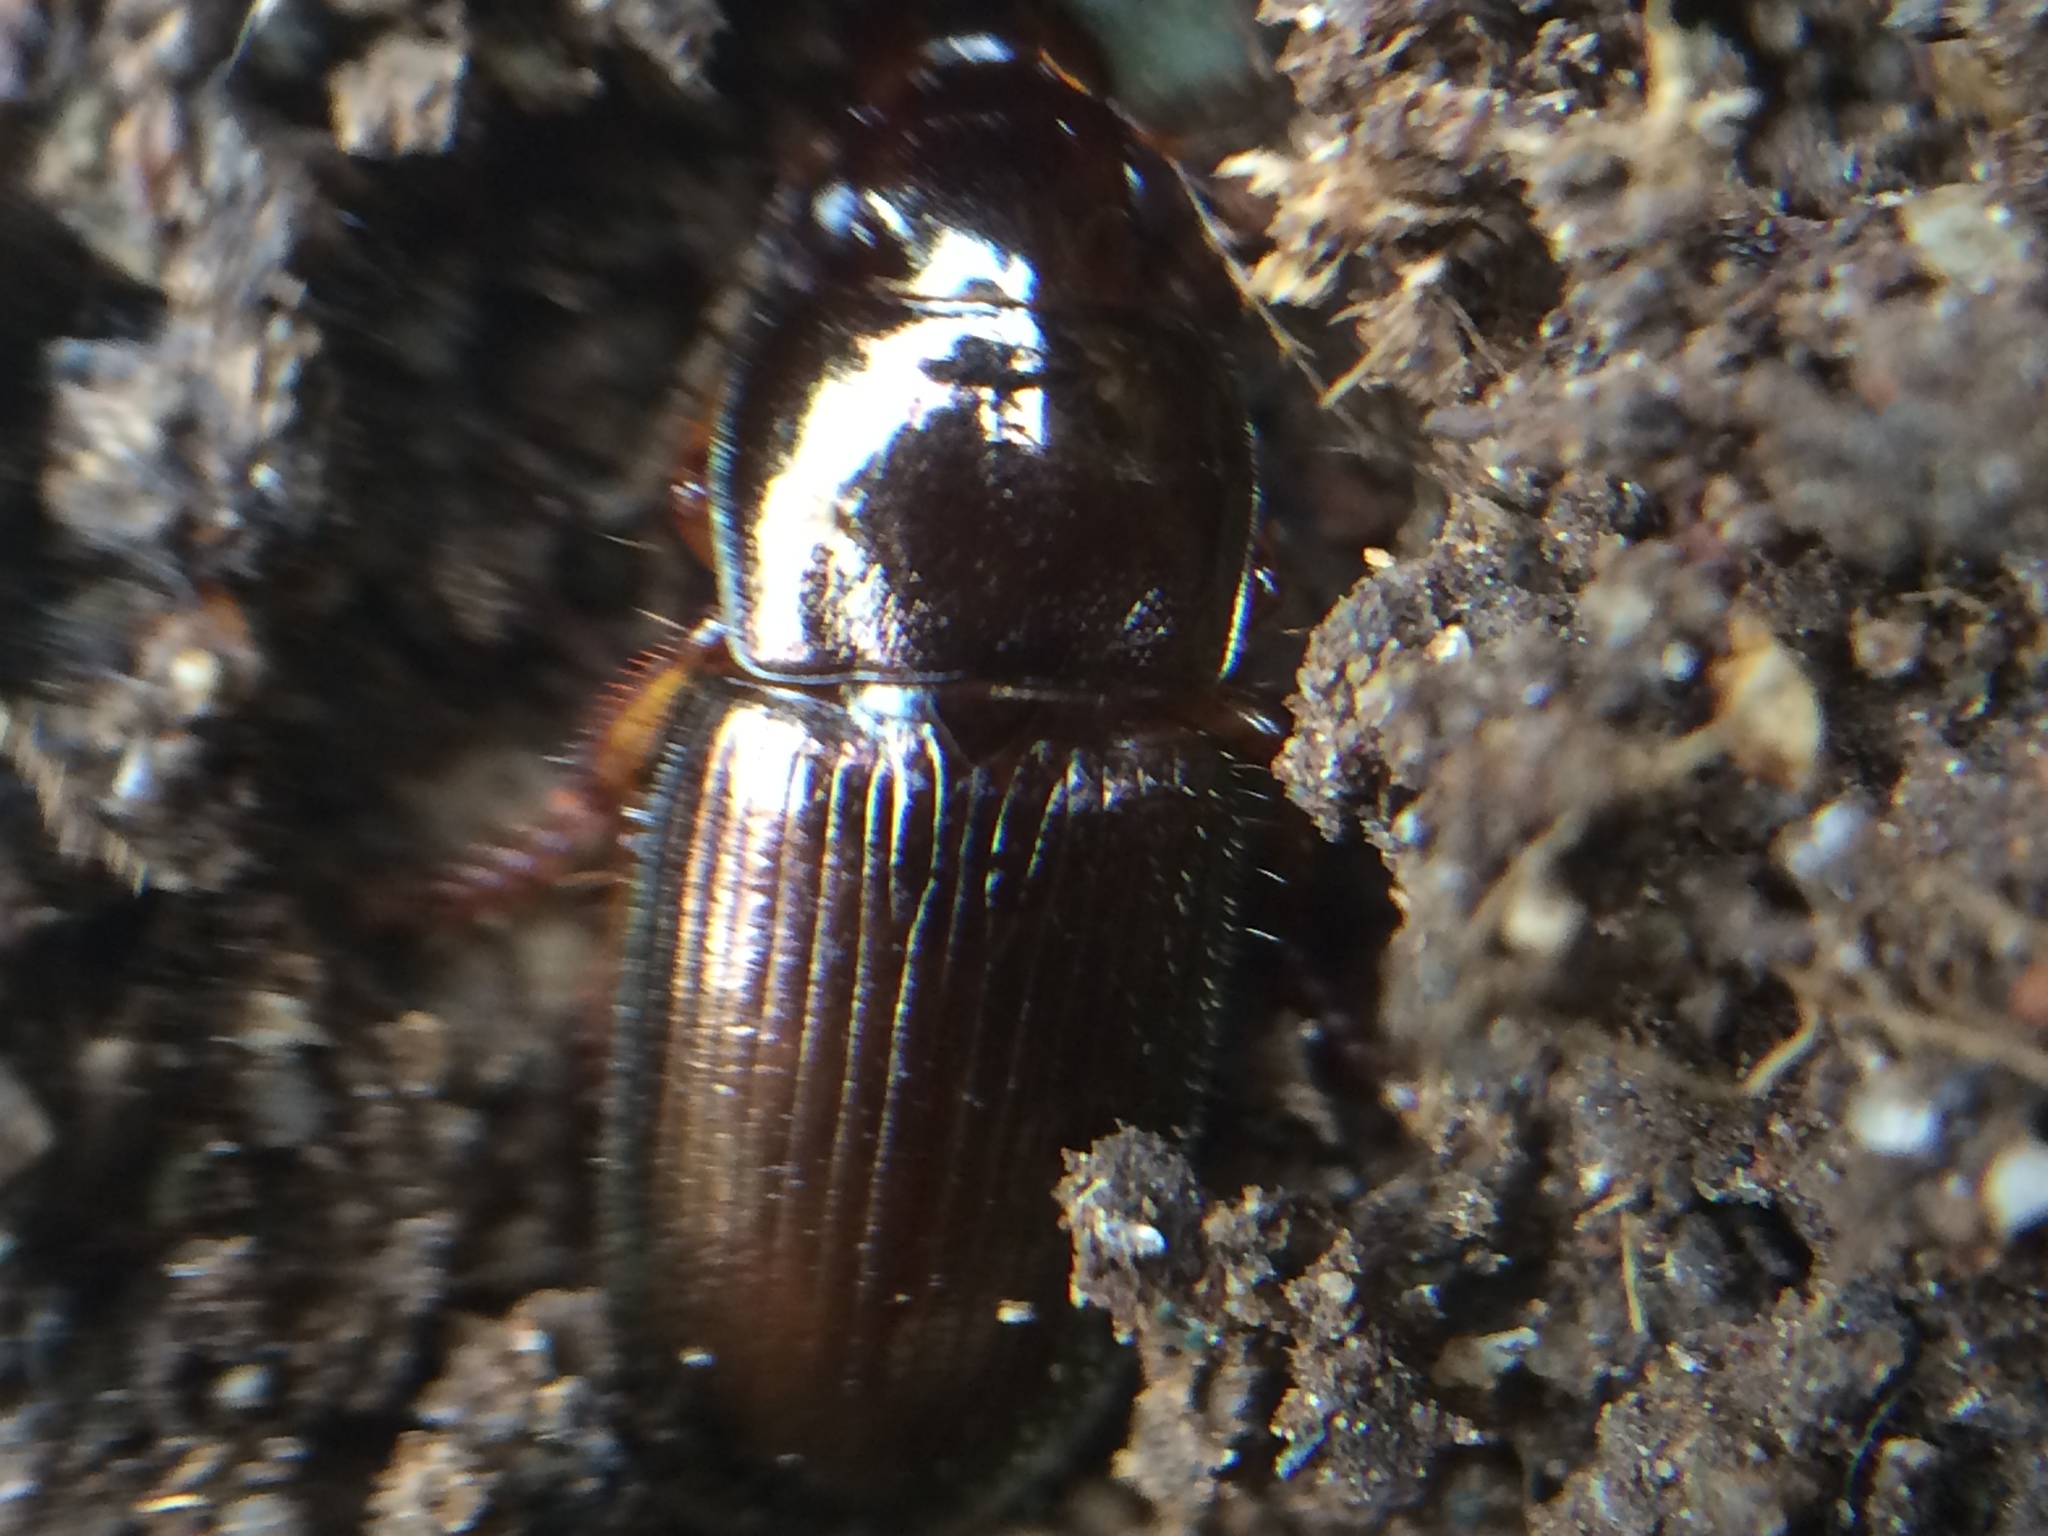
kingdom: Animalia
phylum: Arthropoda
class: Insecta
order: Coleoptera
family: Carabidae
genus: Harpalus
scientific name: Harpalus affinis
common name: Polychrome harp ground beetle
